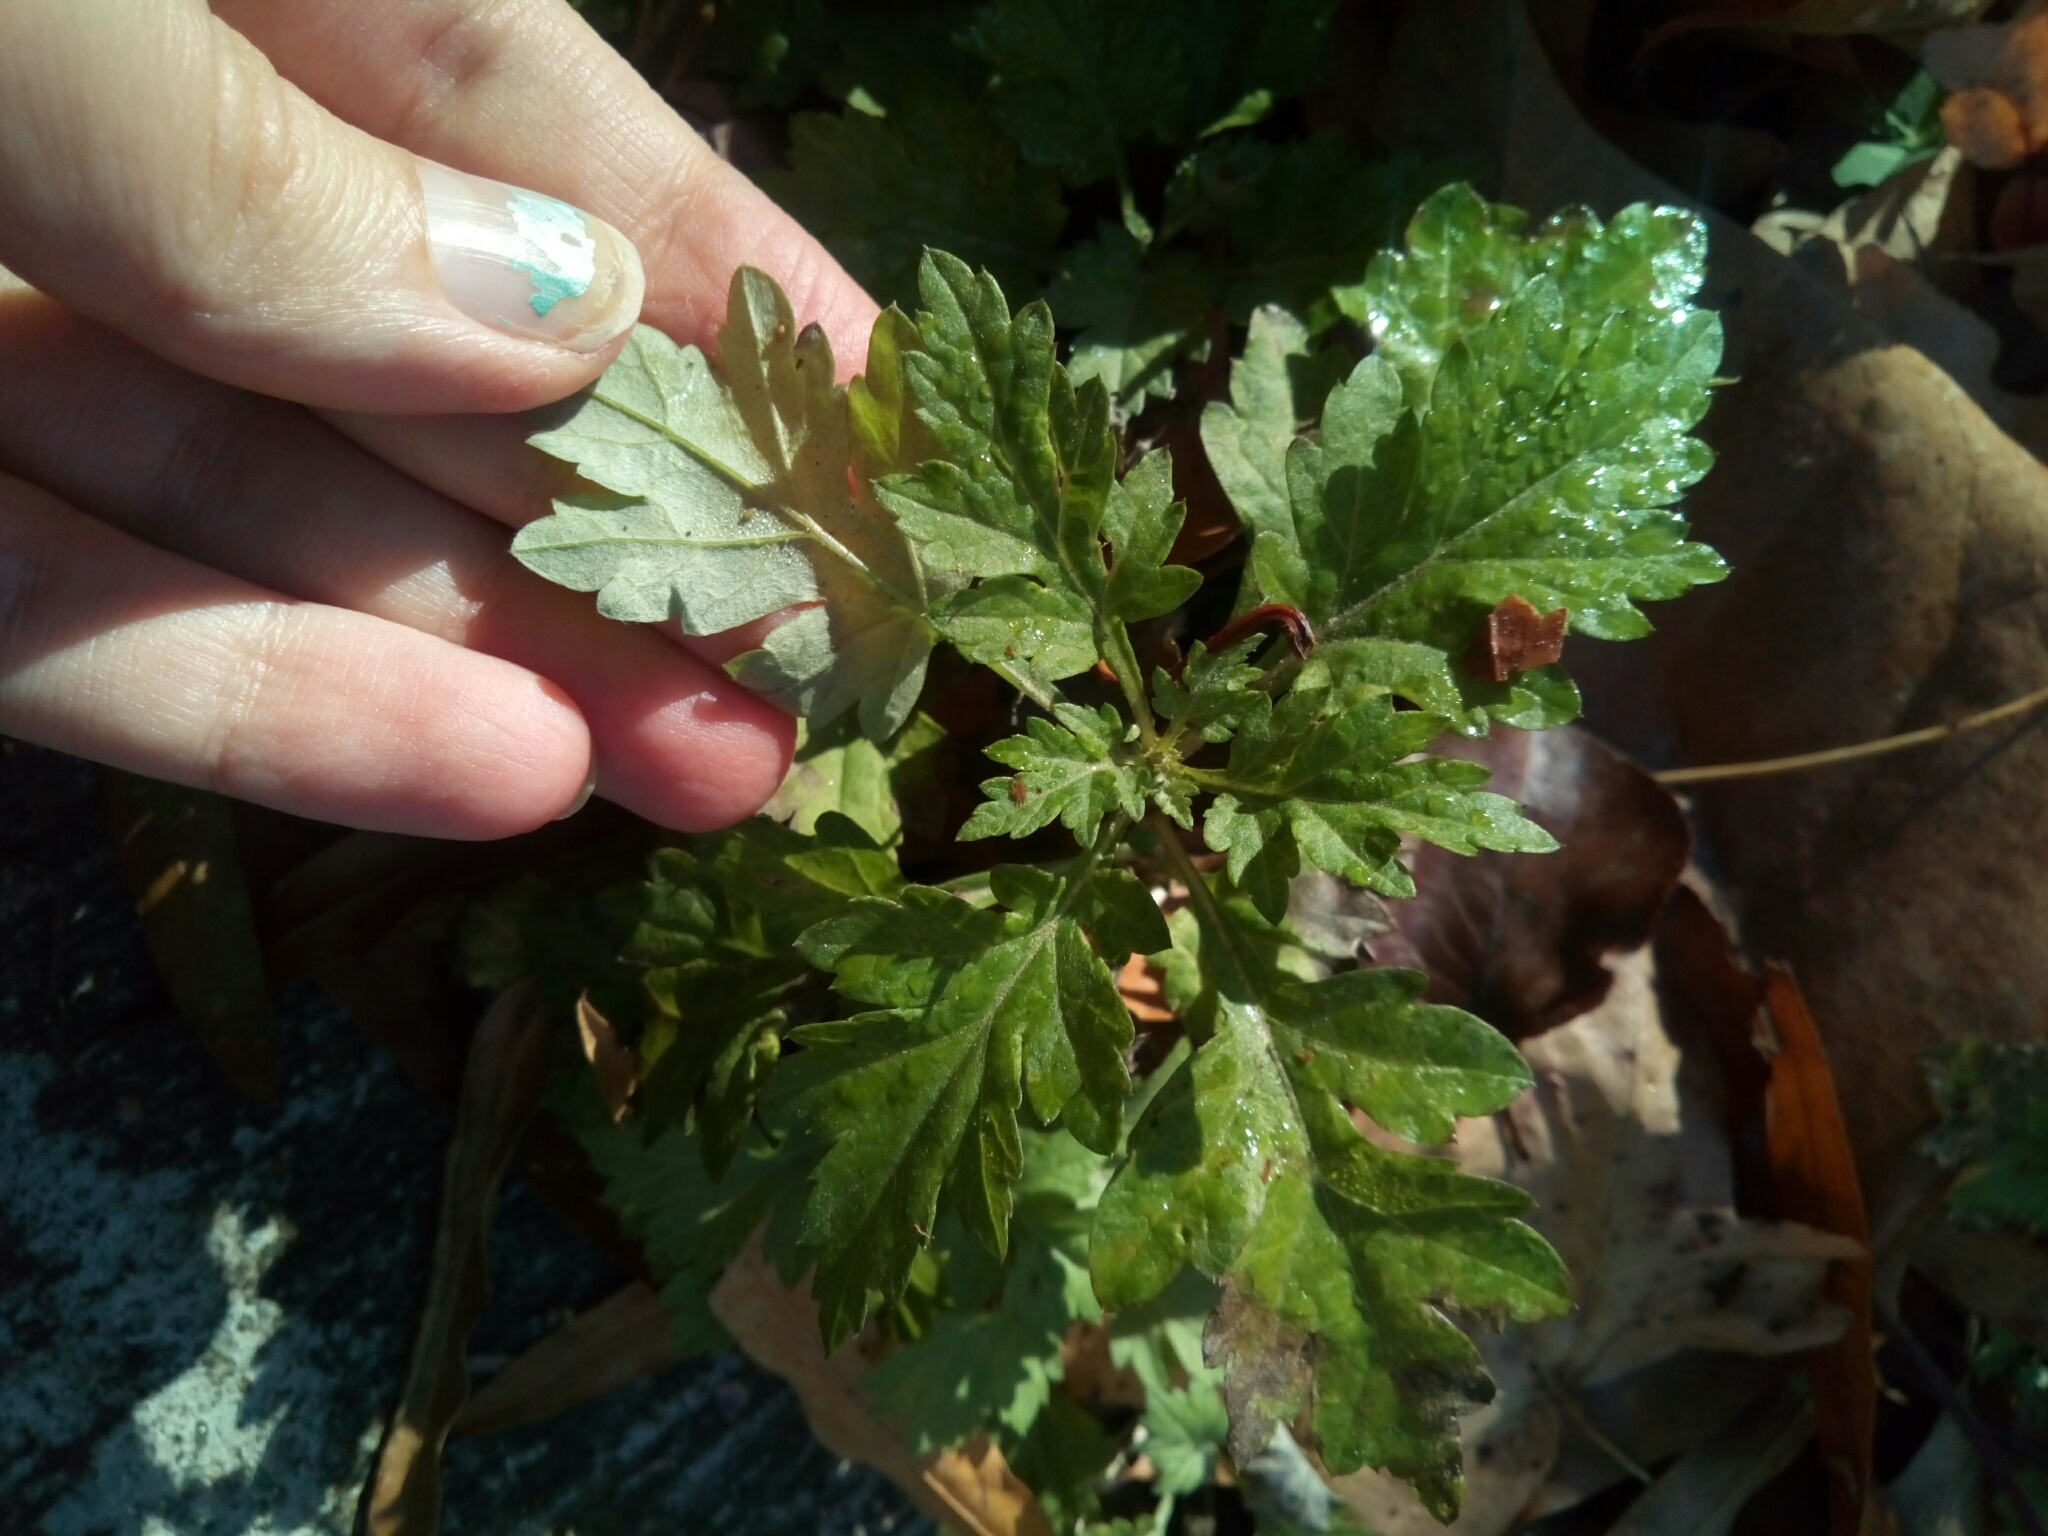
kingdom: Plantae
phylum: Tracheophyta
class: Magnoliopsida
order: Asterales
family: Asteraceae
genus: Artemisia
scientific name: Artemisia vulgaris
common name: Mugwort
